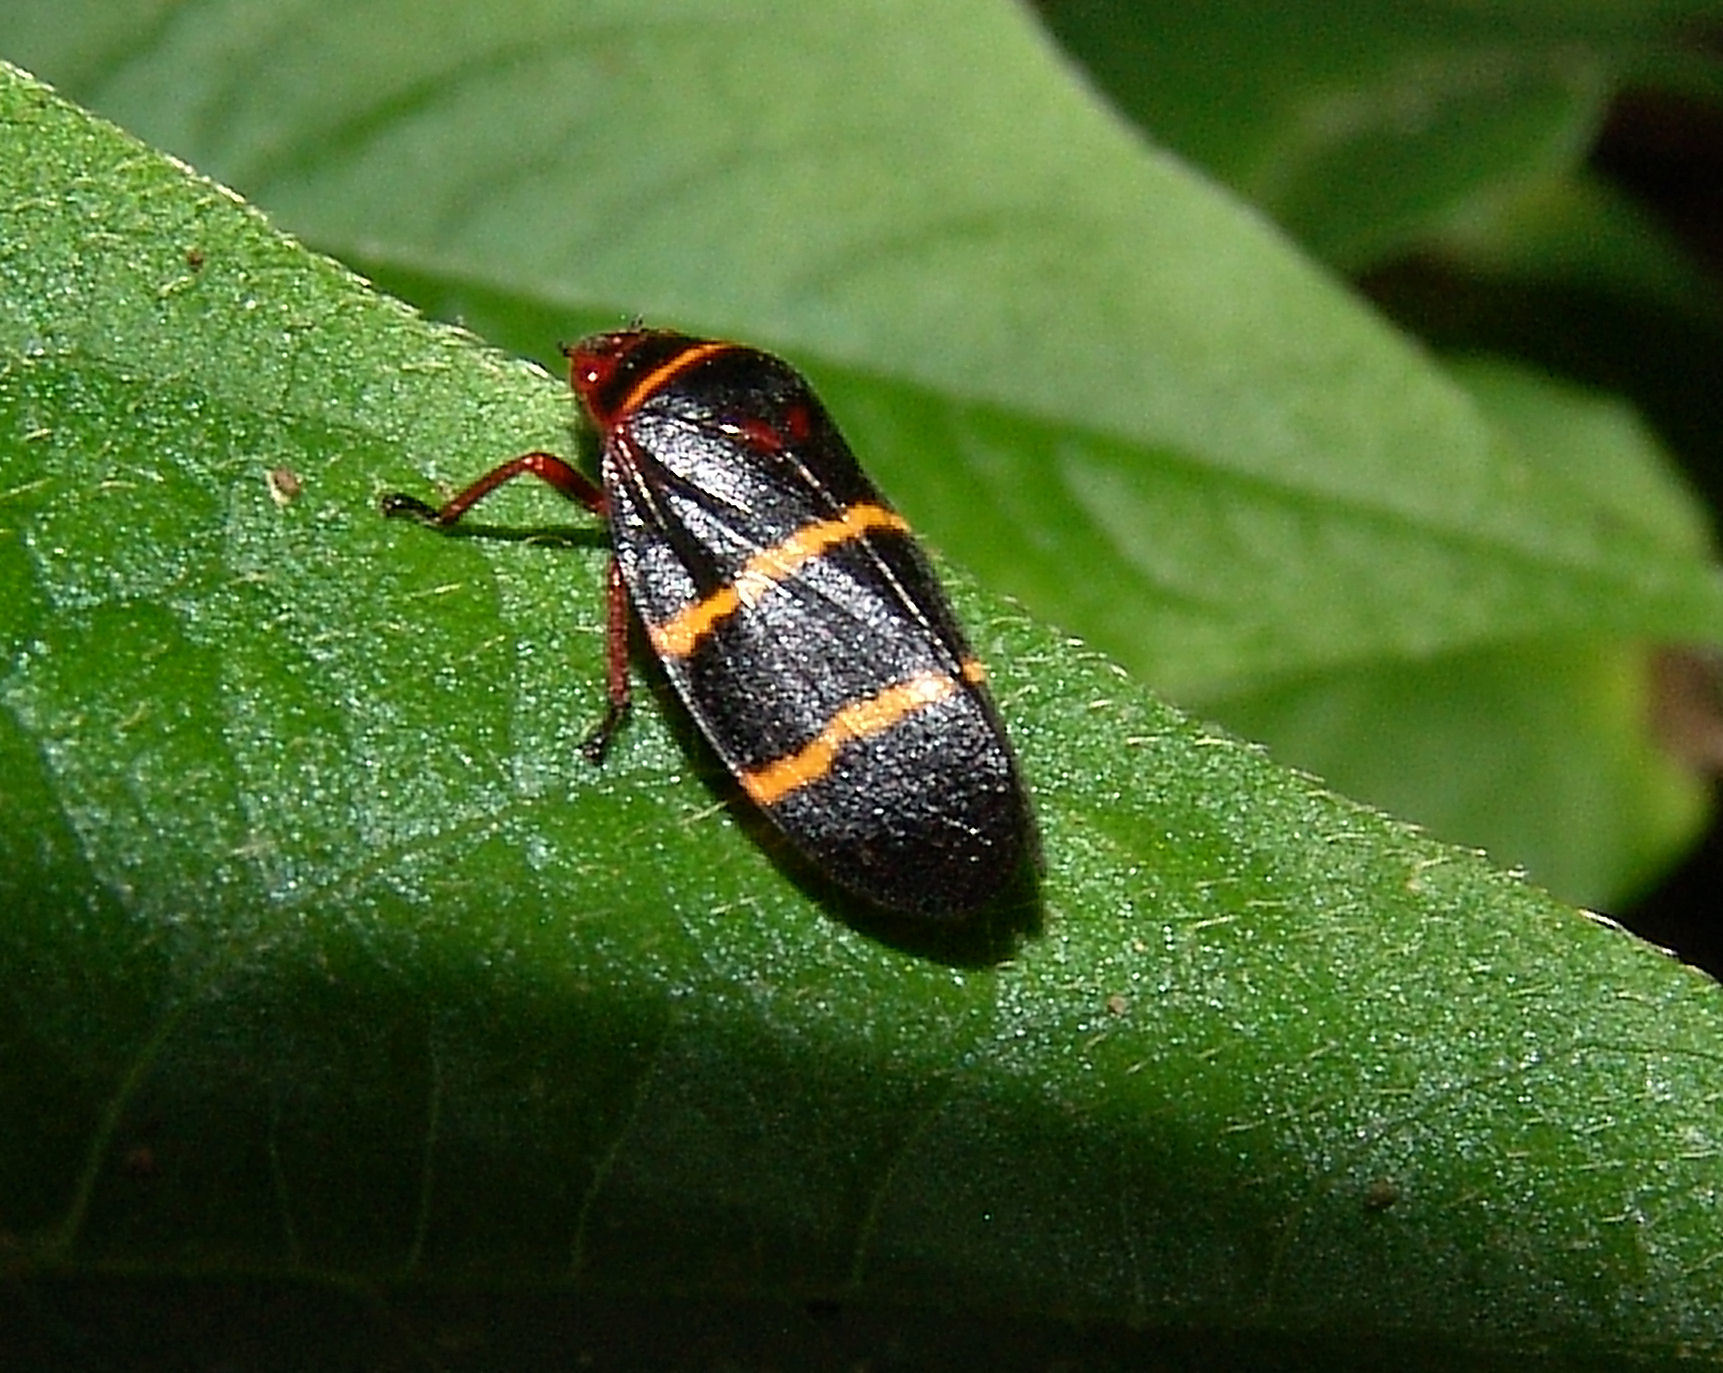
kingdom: Animalia
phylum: Arthropoda
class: Insecta
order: Hemiptera
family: Cercopidae
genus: Prosapia
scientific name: Prosapia bicincta
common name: Twolined spittlebug
